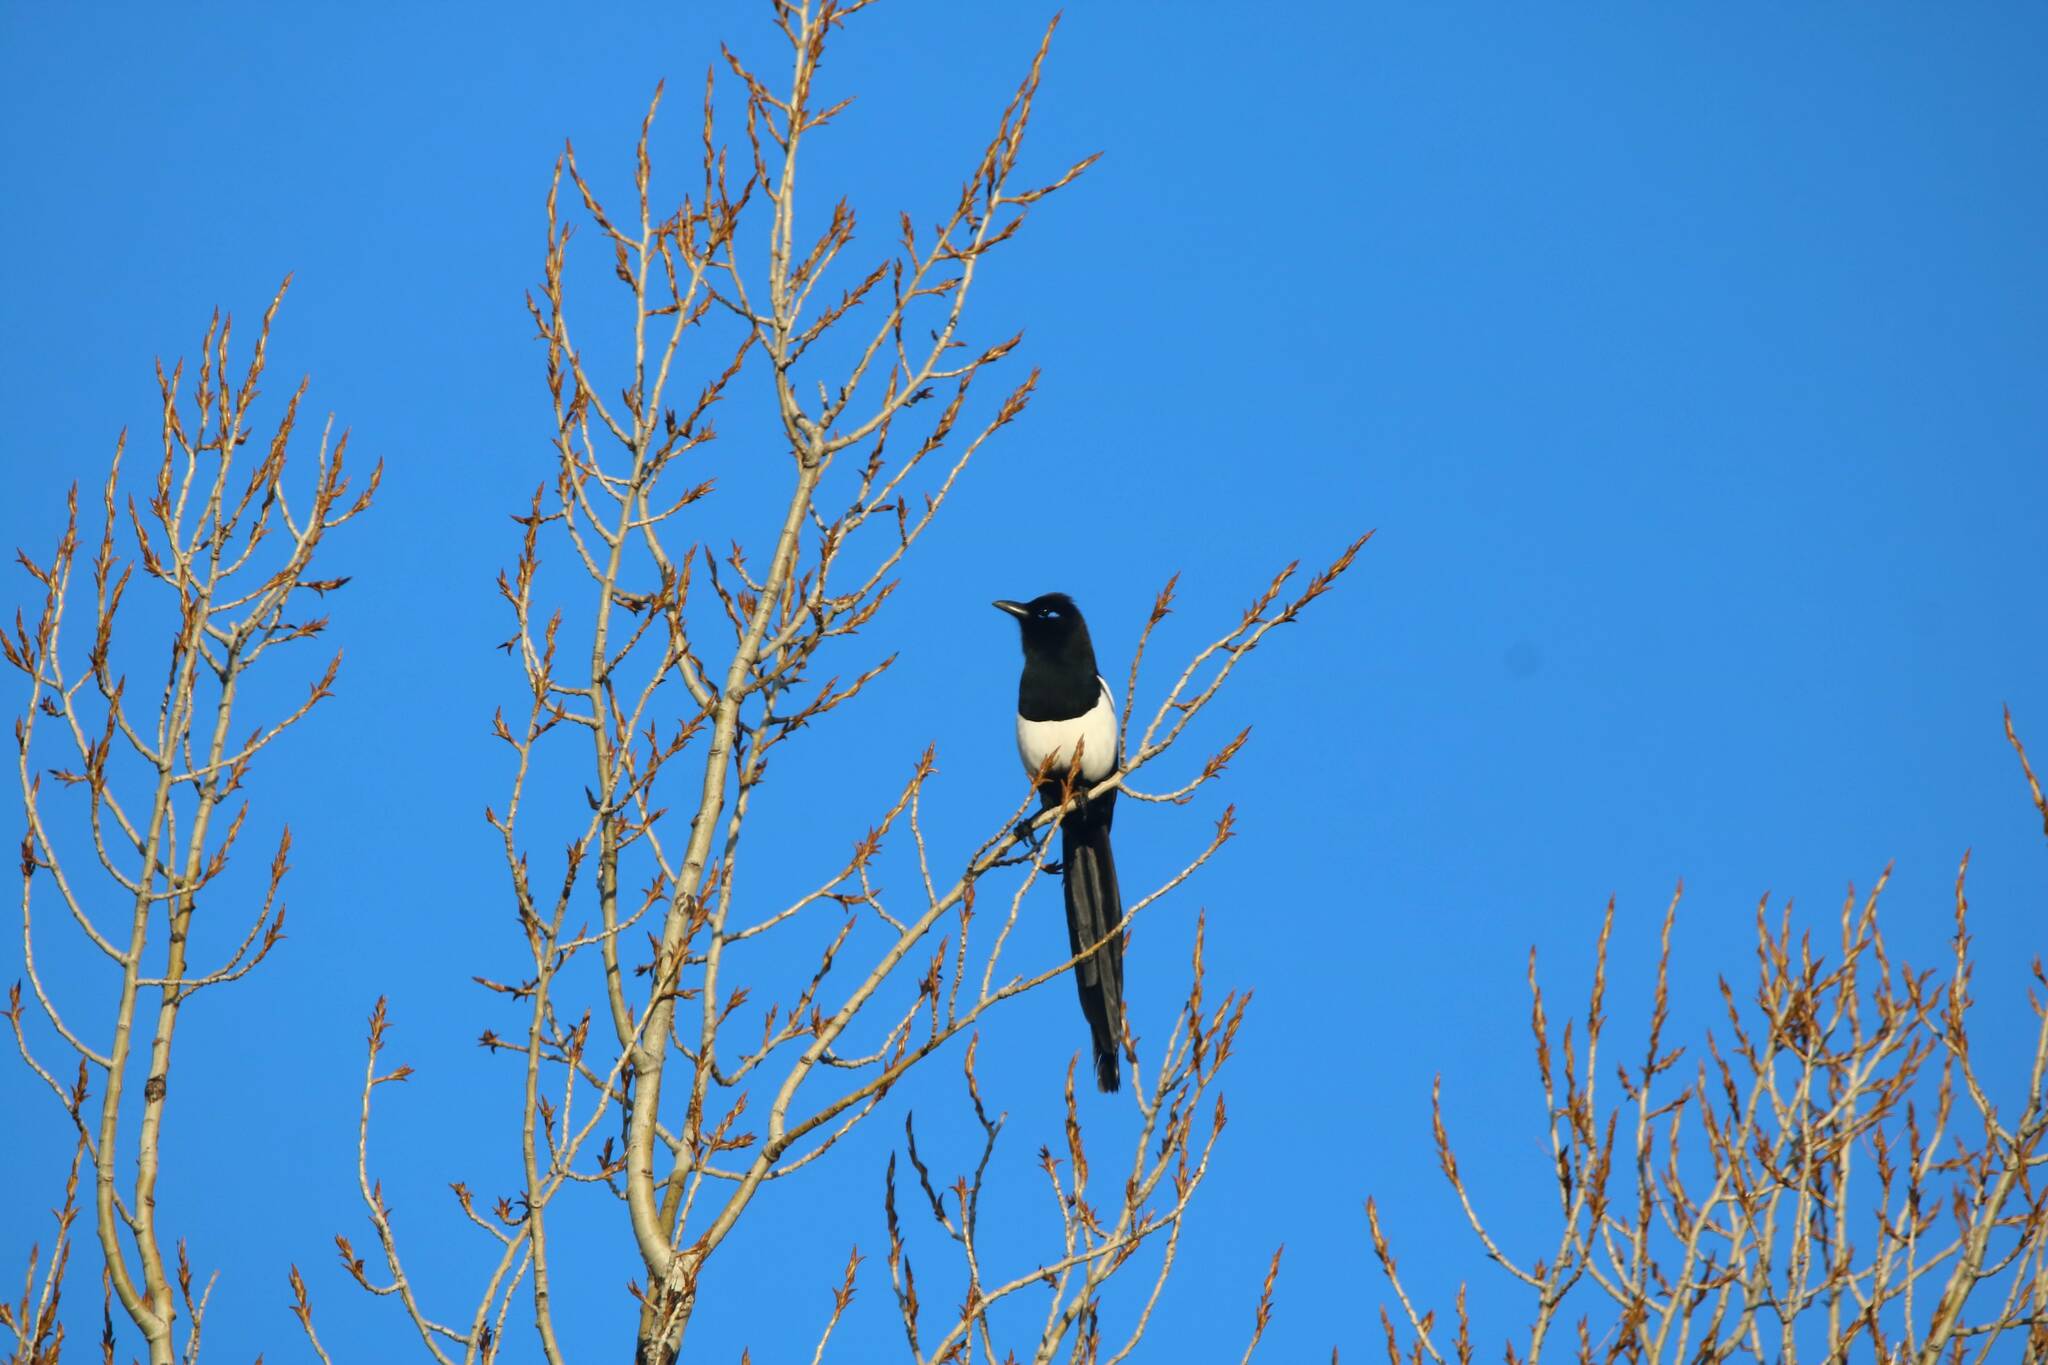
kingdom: Animalia
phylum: Chordata
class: Aves
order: Passeriformes
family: Corvidae
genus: Pica
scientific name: Pica mauritanica
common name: Maghreb magpie
